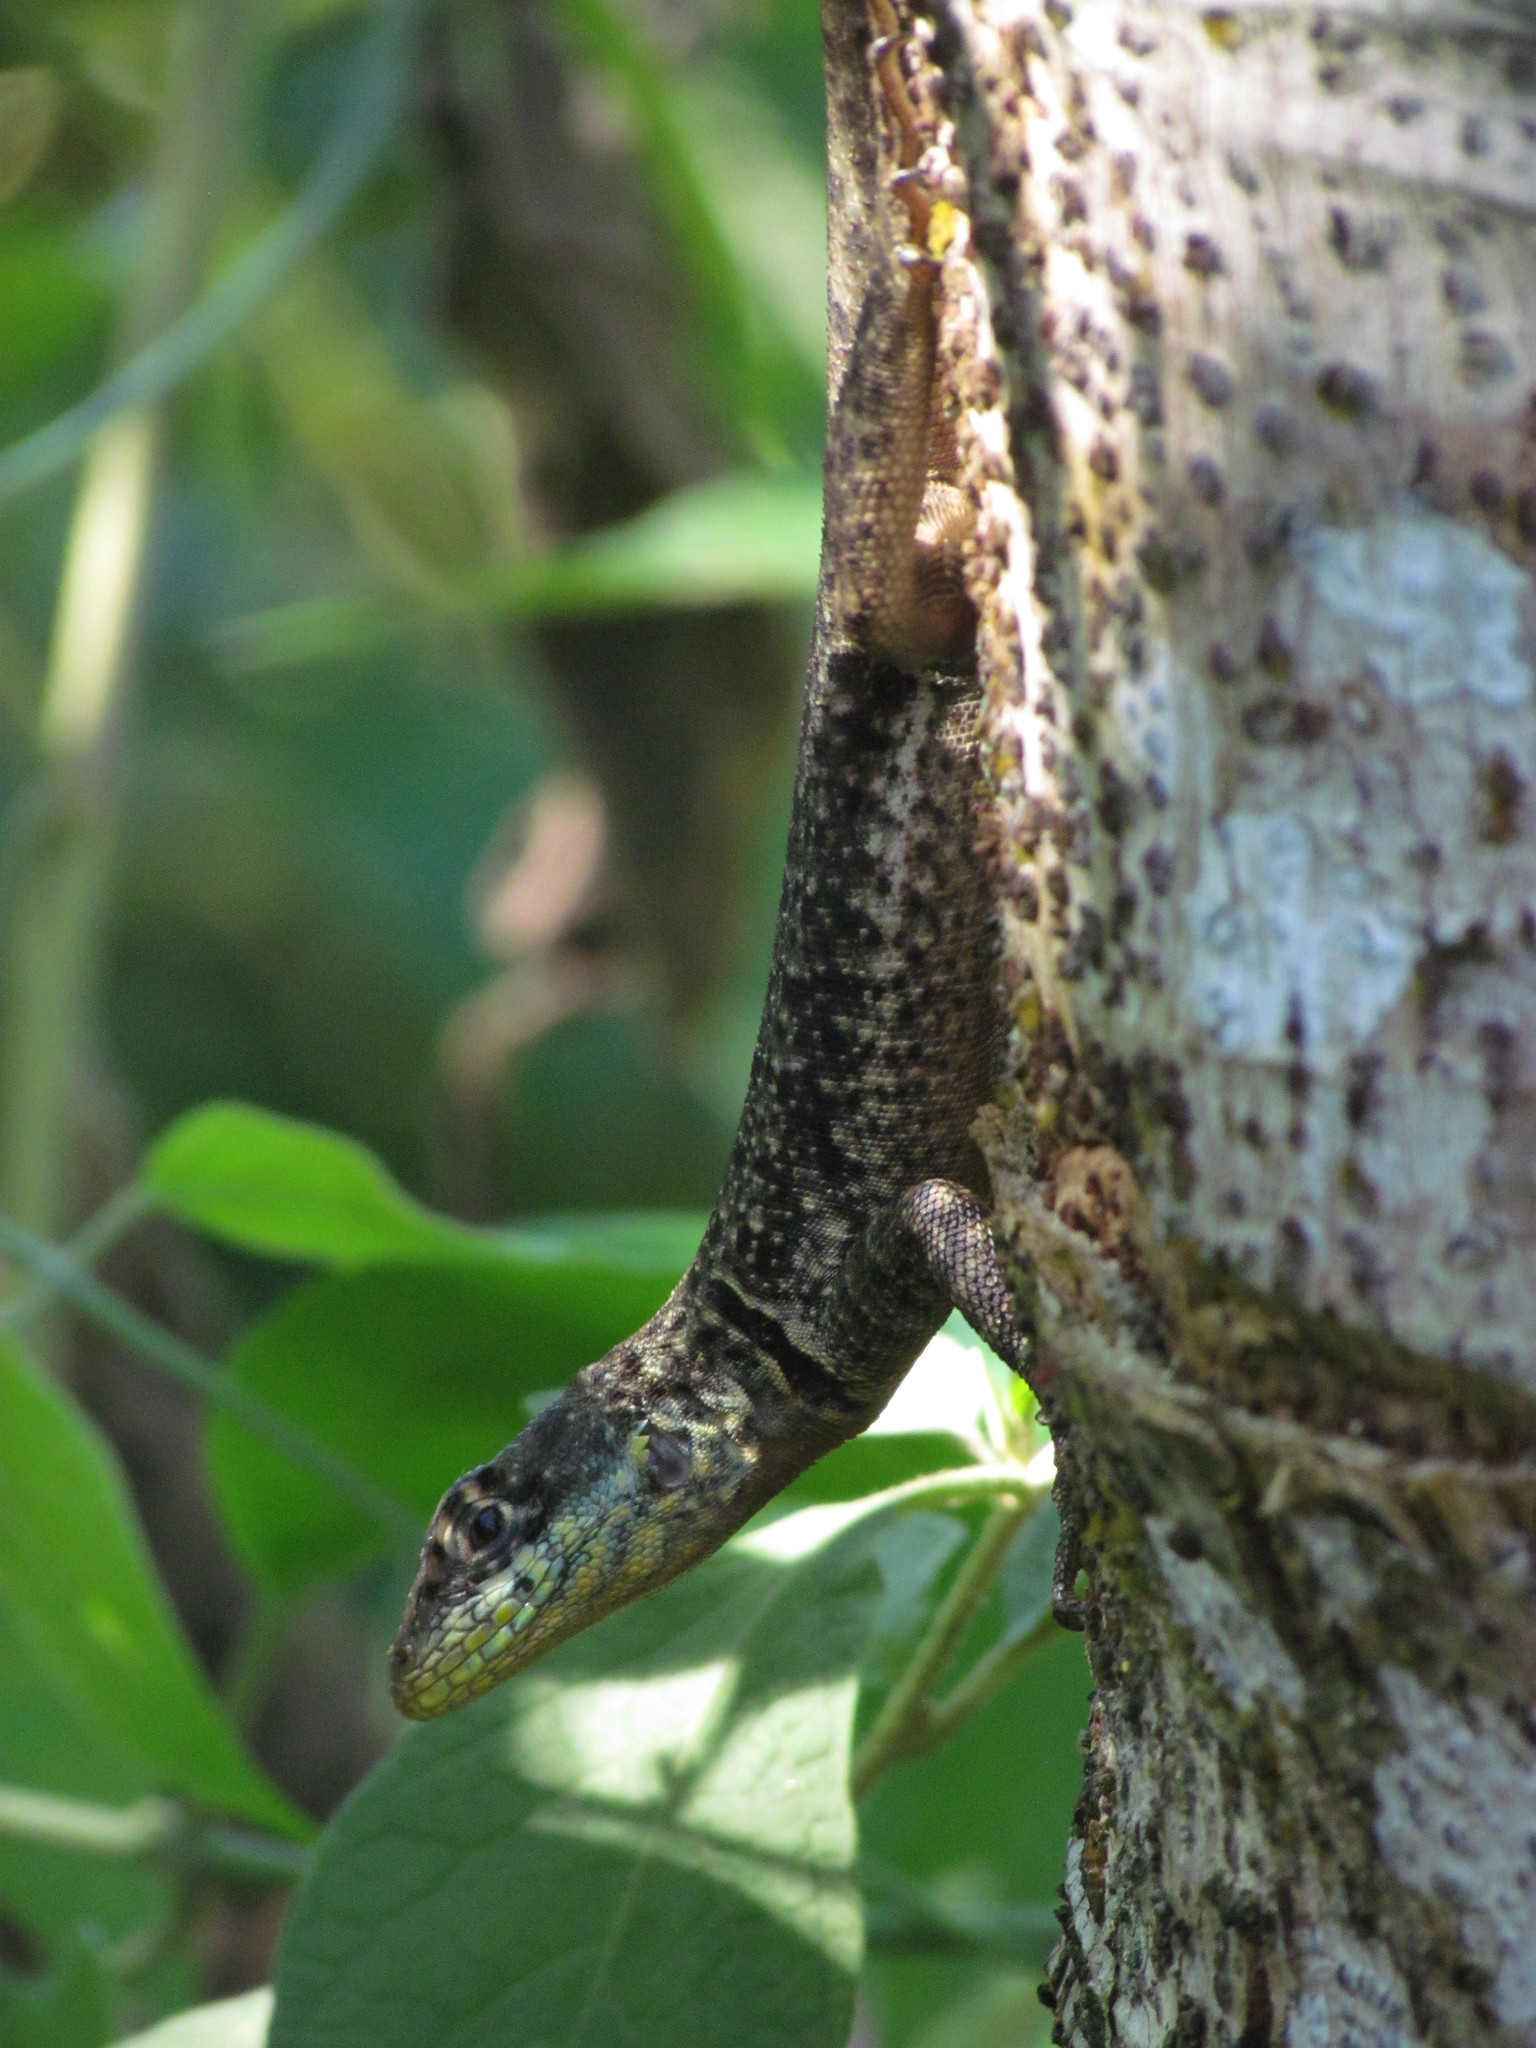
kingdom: Animalia
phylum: Chordata
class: Squamata
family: Tropiduridae
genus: Tropidurus
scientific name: Tropidurus catalanensis
